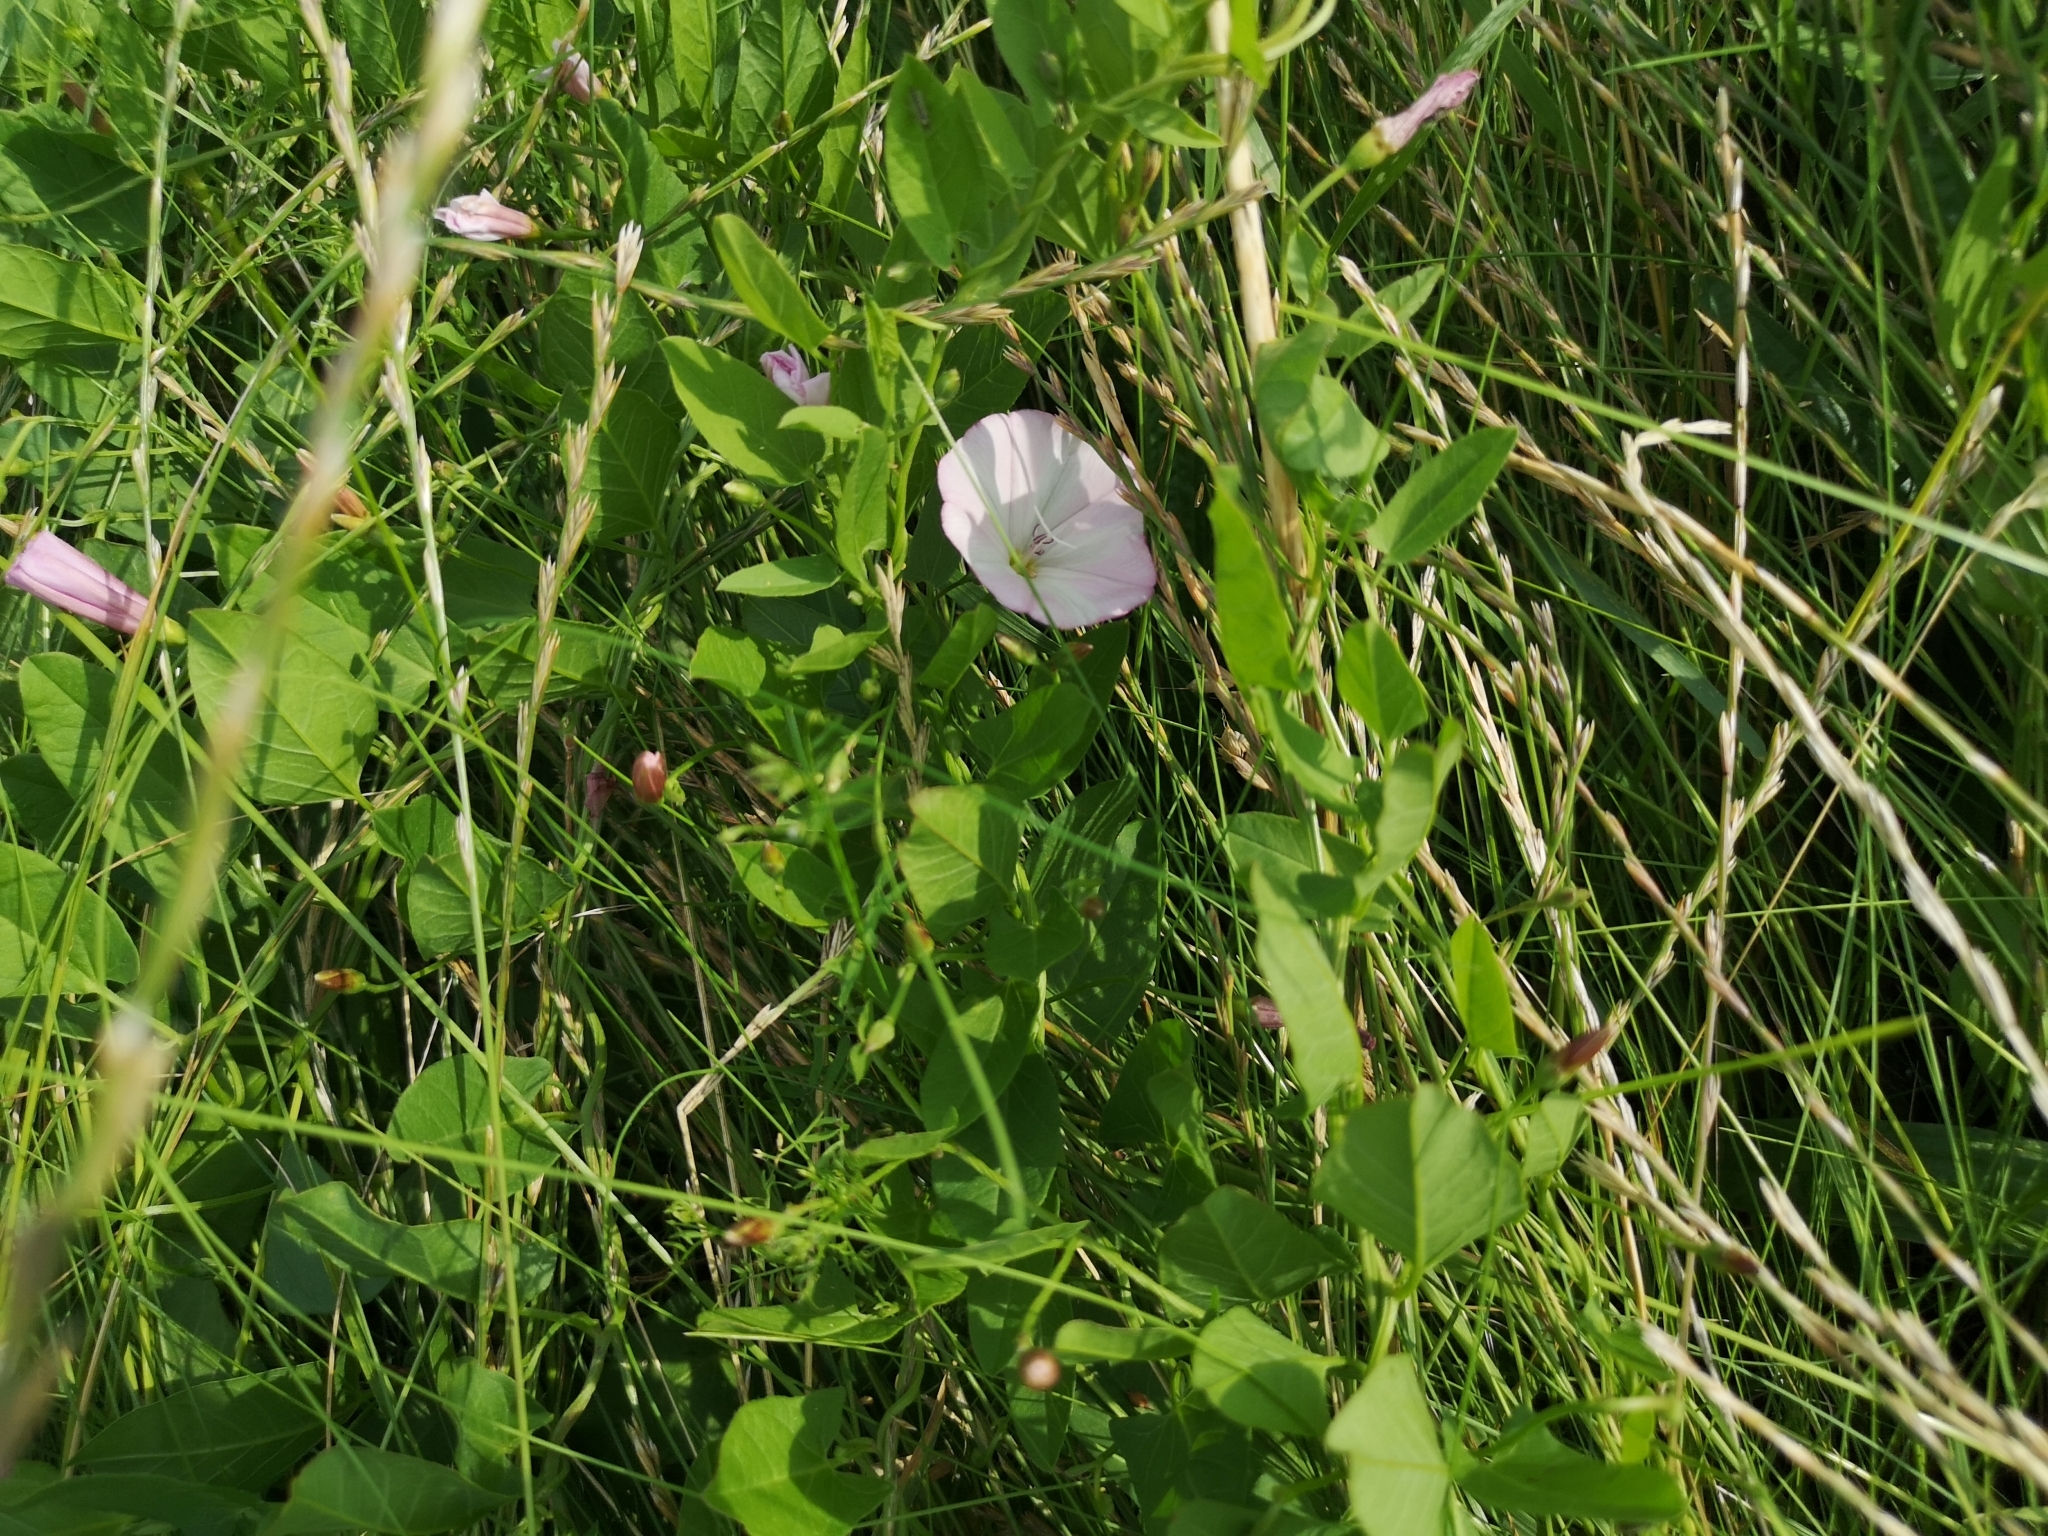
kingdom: Plantae
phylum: Tracheophyta
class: Magnoliopsida
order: Solanales
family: Convolvulaceae
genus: Convolvulus
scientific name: Convolvulus arvensis
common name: Field bindweed
